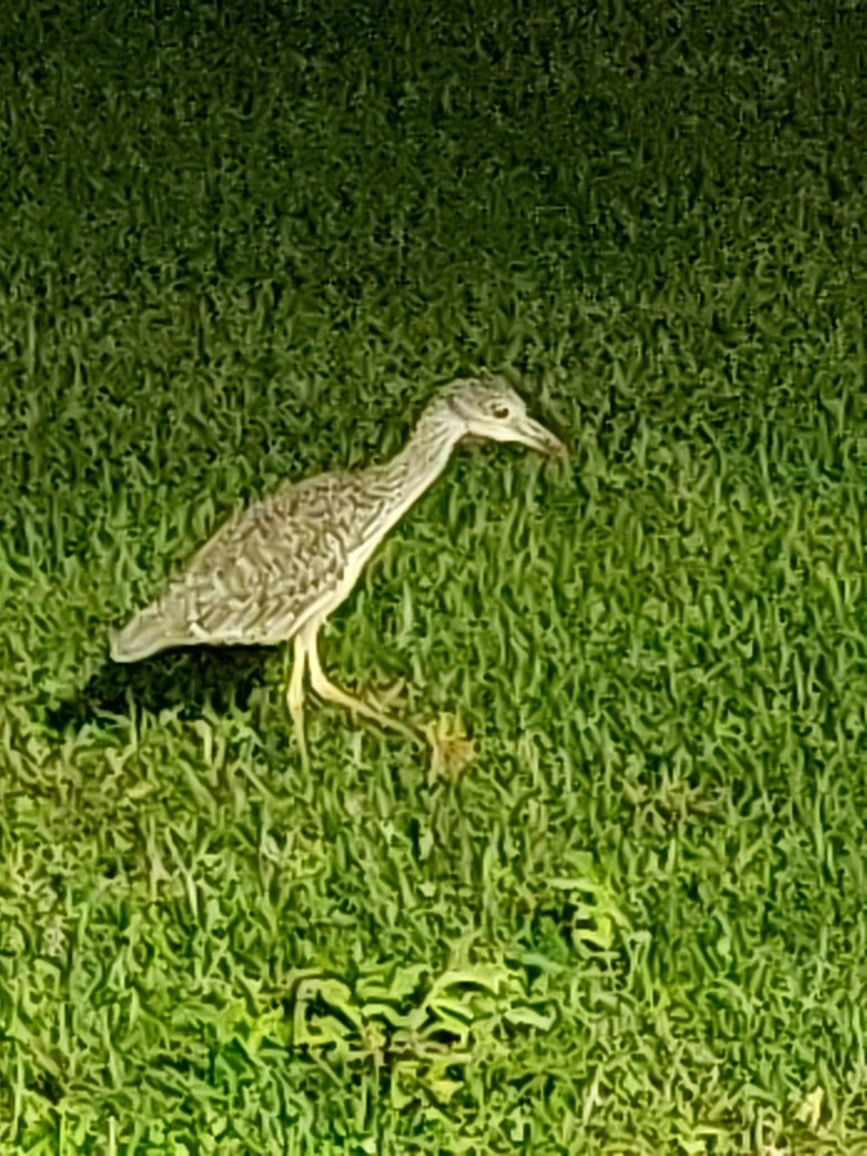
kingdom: Animalia
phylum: Chordata
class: Aves
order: Pelecaniformes
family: Ardeidae
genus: Nyctanassa
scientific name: Nyctanassa violacea
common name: Yellow-crowned night heron
